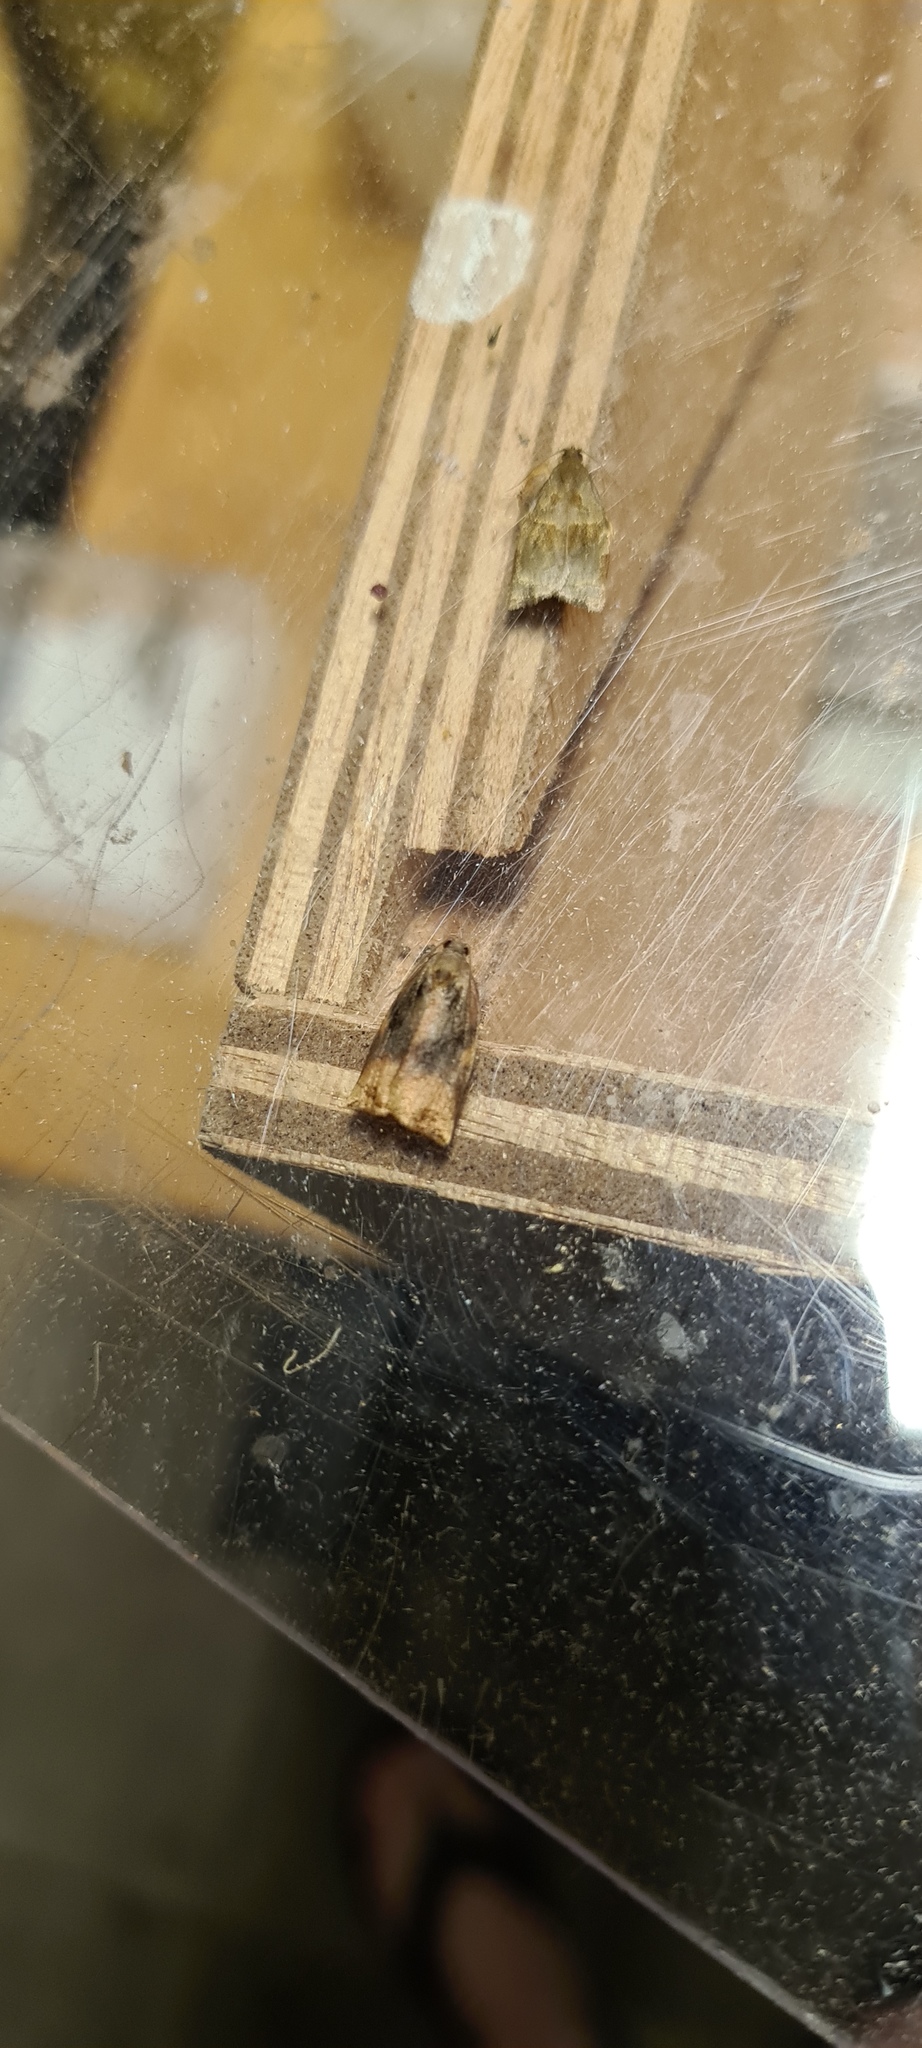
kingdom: Animalia
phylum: Arthropoda
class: Insecta
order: Lepidoptera
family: Tortricidae
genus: Archips
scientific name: Archips podana
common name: Large fruit-tree tortrix
